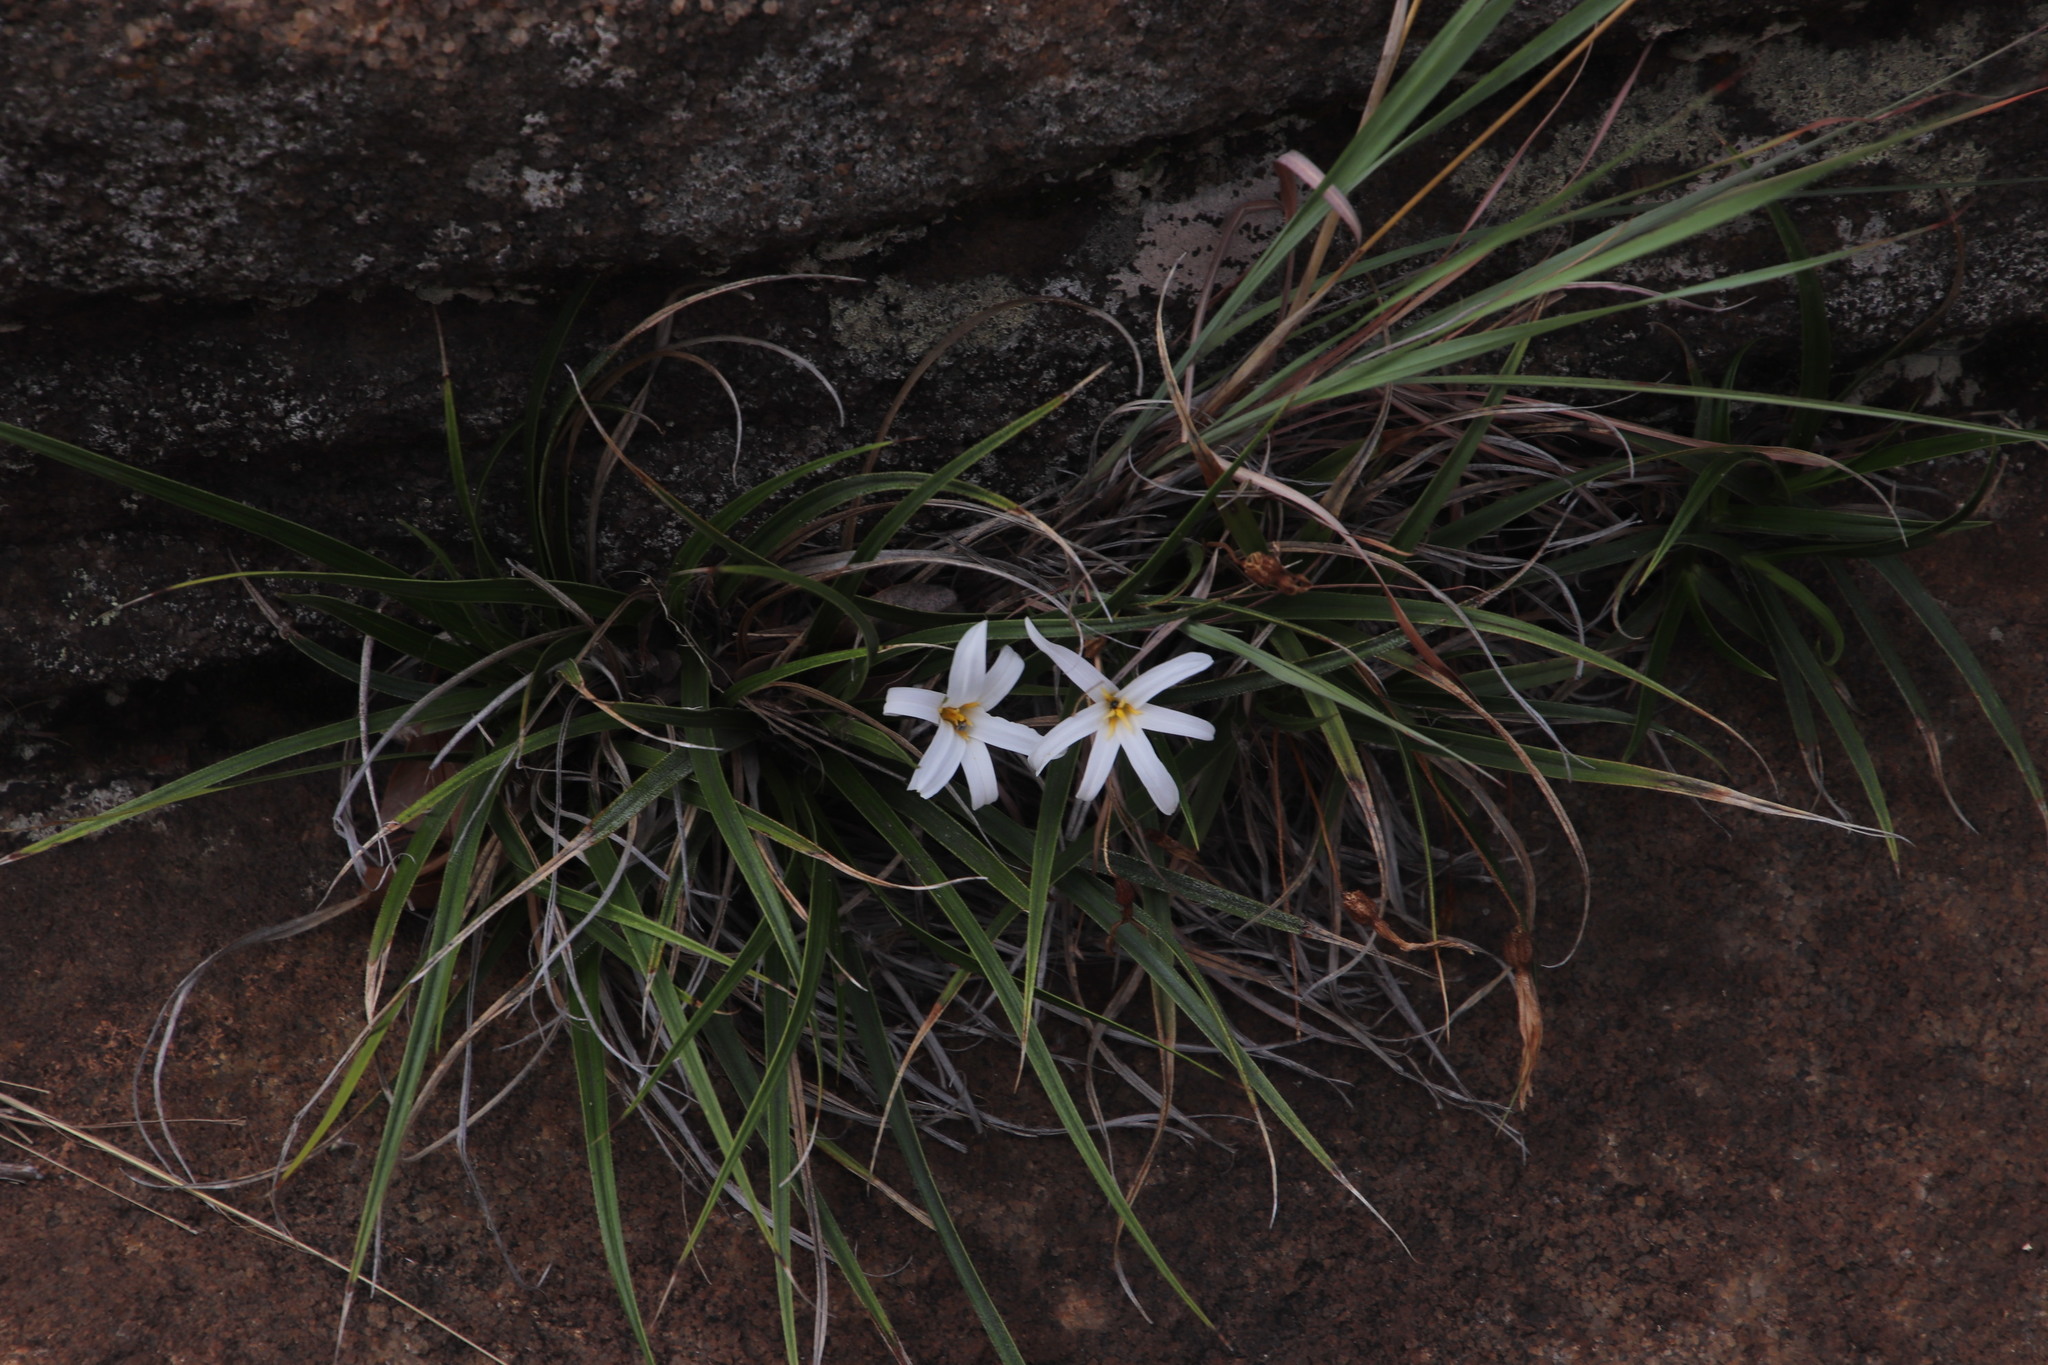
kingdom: Plantae
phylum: Tracheophyta
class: Liliopsida
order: Pandanales
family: Velloziaceae
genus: Xerophyta
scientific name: Xerophyta schlechteri
